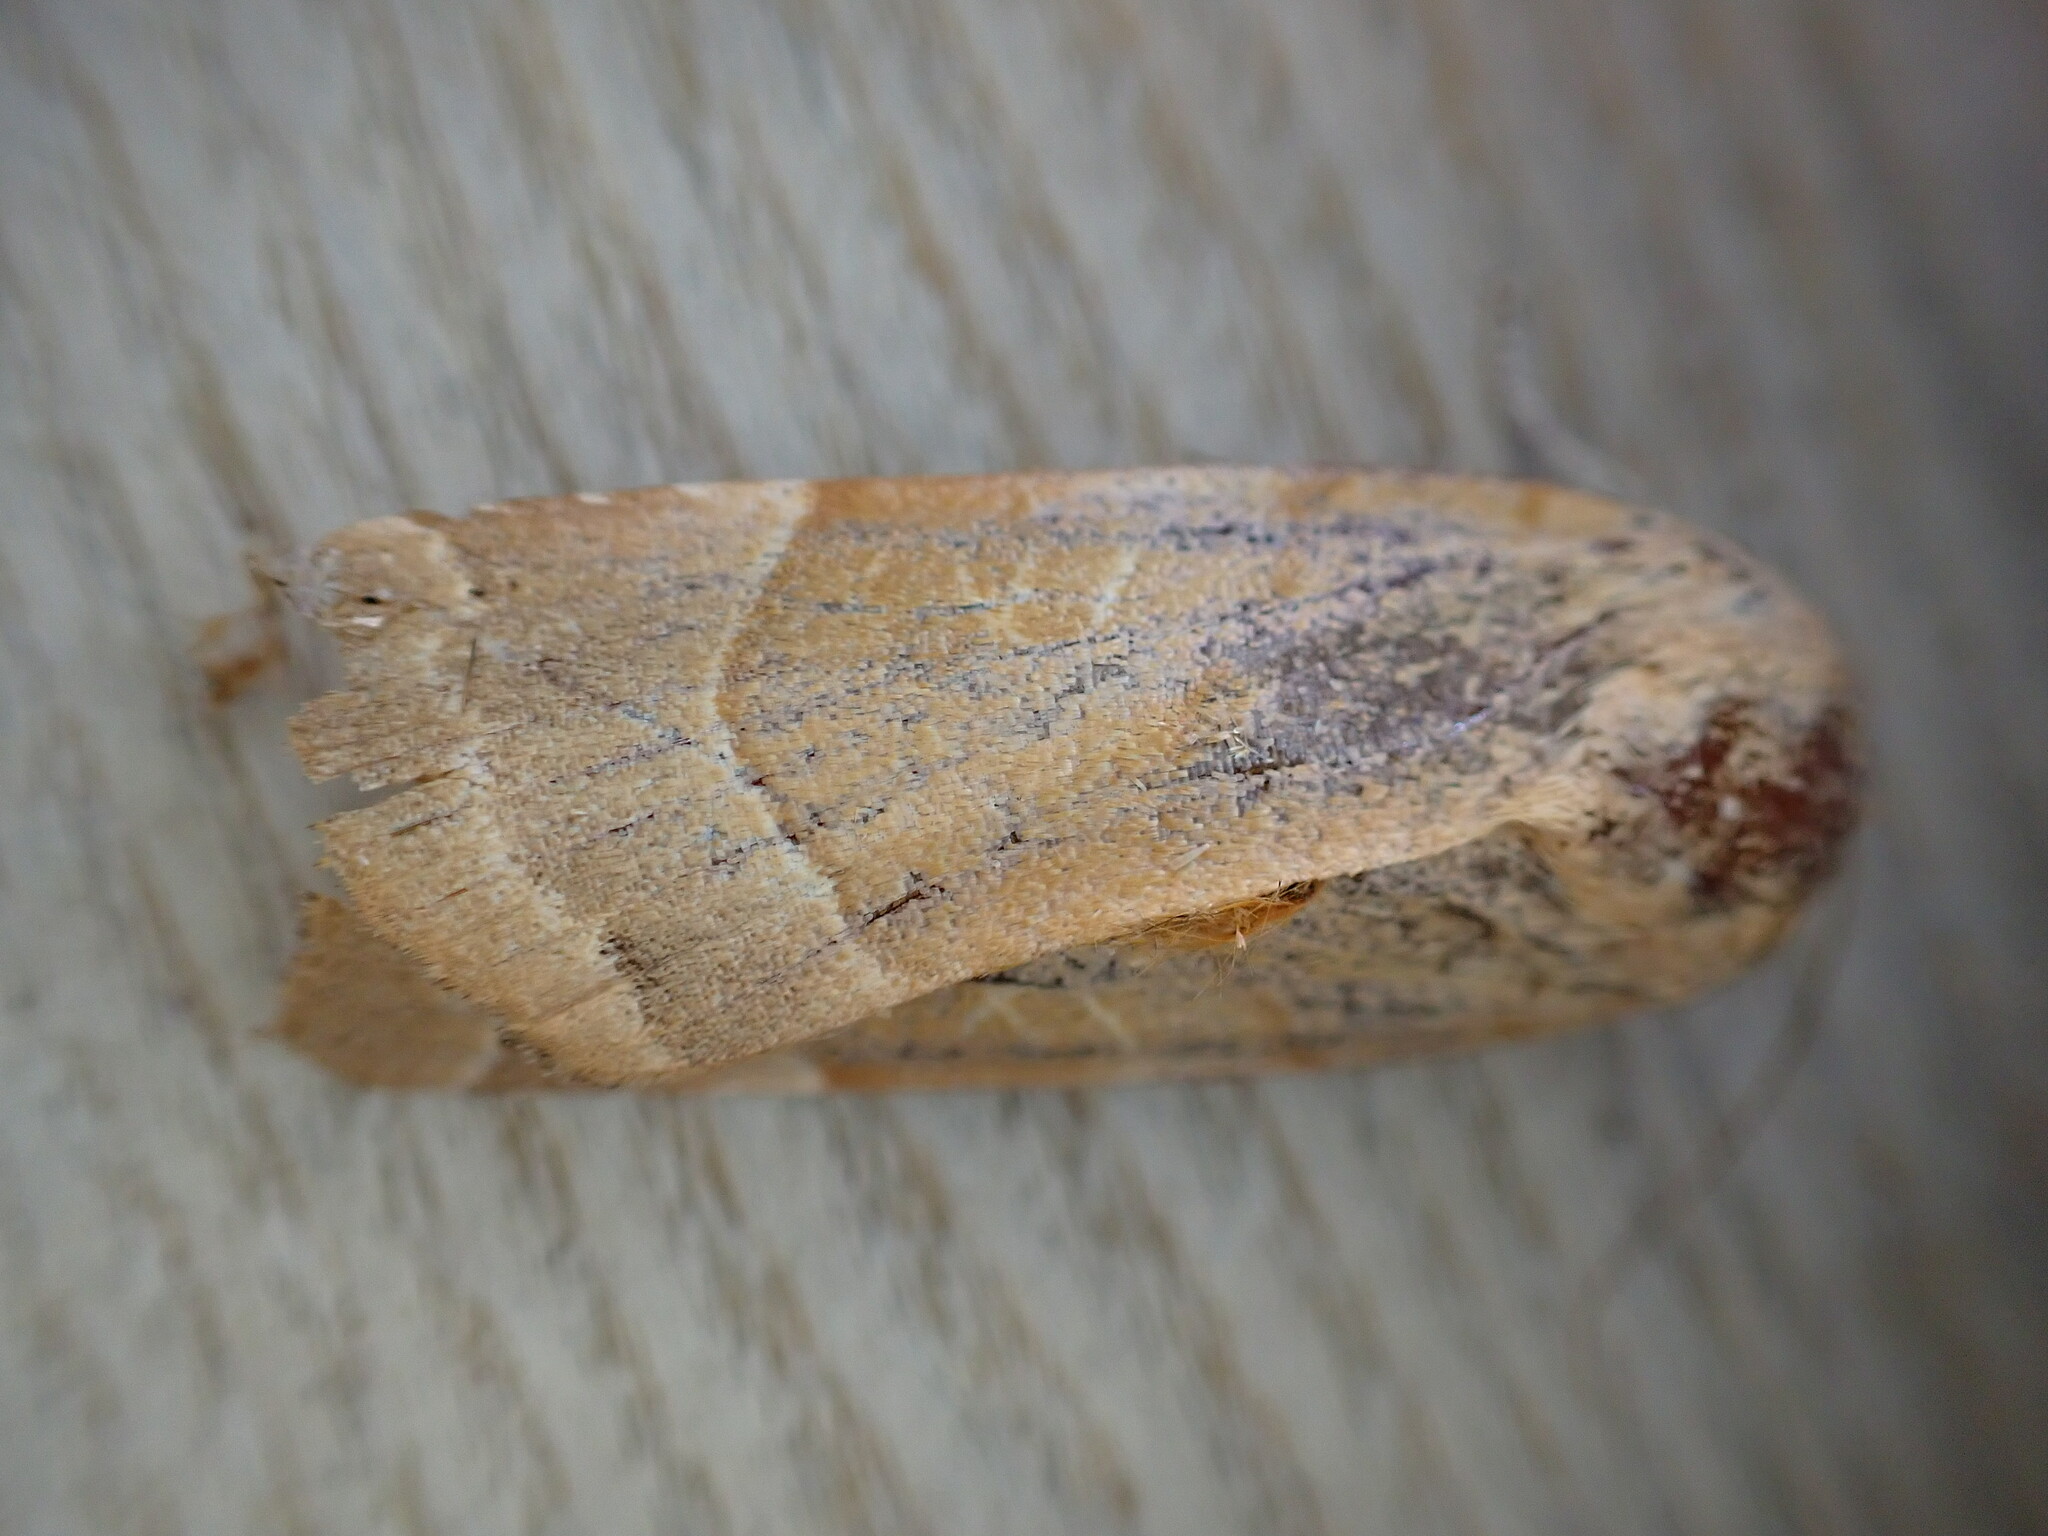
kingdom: Animalia
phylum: Arthropoda
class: Insecta
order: Lepidoptera
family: Noctuidae
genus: Noctua
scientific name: Noctua fimbriata
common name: Broad-bordered yellow underwing
